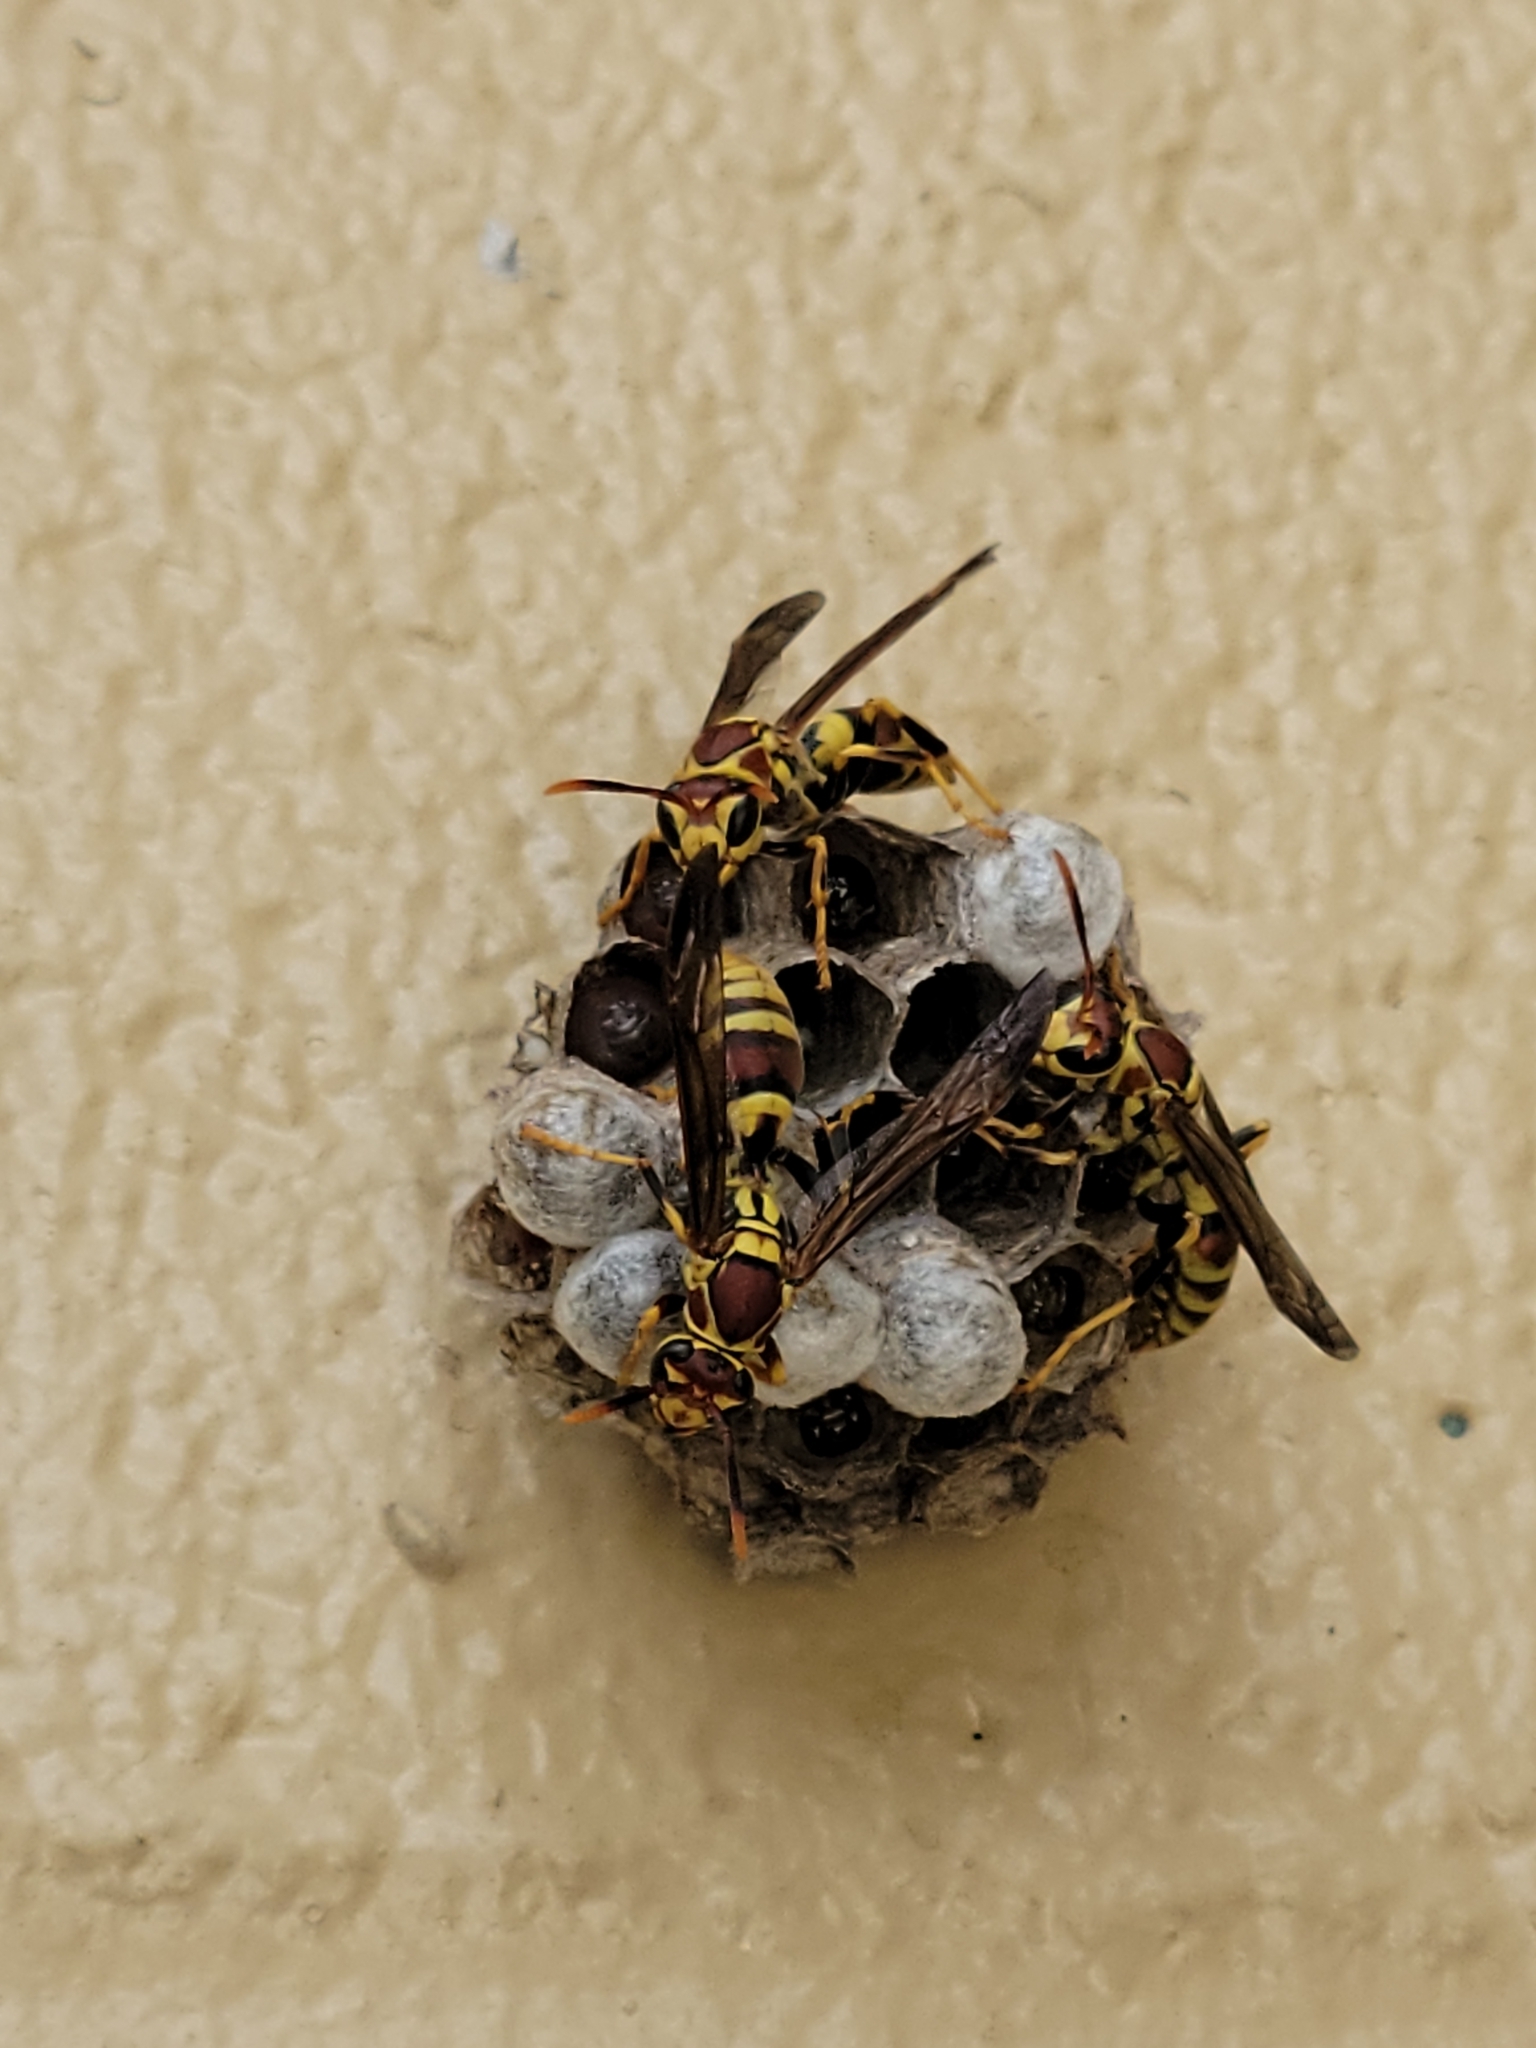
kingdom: Animalia
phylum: Arthropoda
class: Insecta
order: Hymenoptera
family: Eumenidae
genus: Polistes
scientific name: Polistes exclamans
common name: Paper wasp
